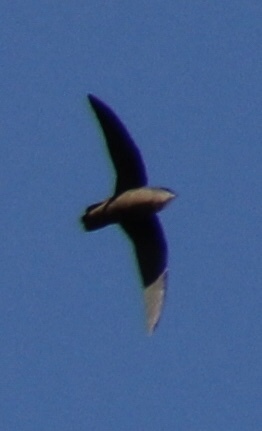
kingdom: Animalia
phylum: Chordata
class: Aves
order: Apodiformes
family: Apodidae
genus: Chaetura
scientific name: Chaetura pelagica
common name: Chimney swift
